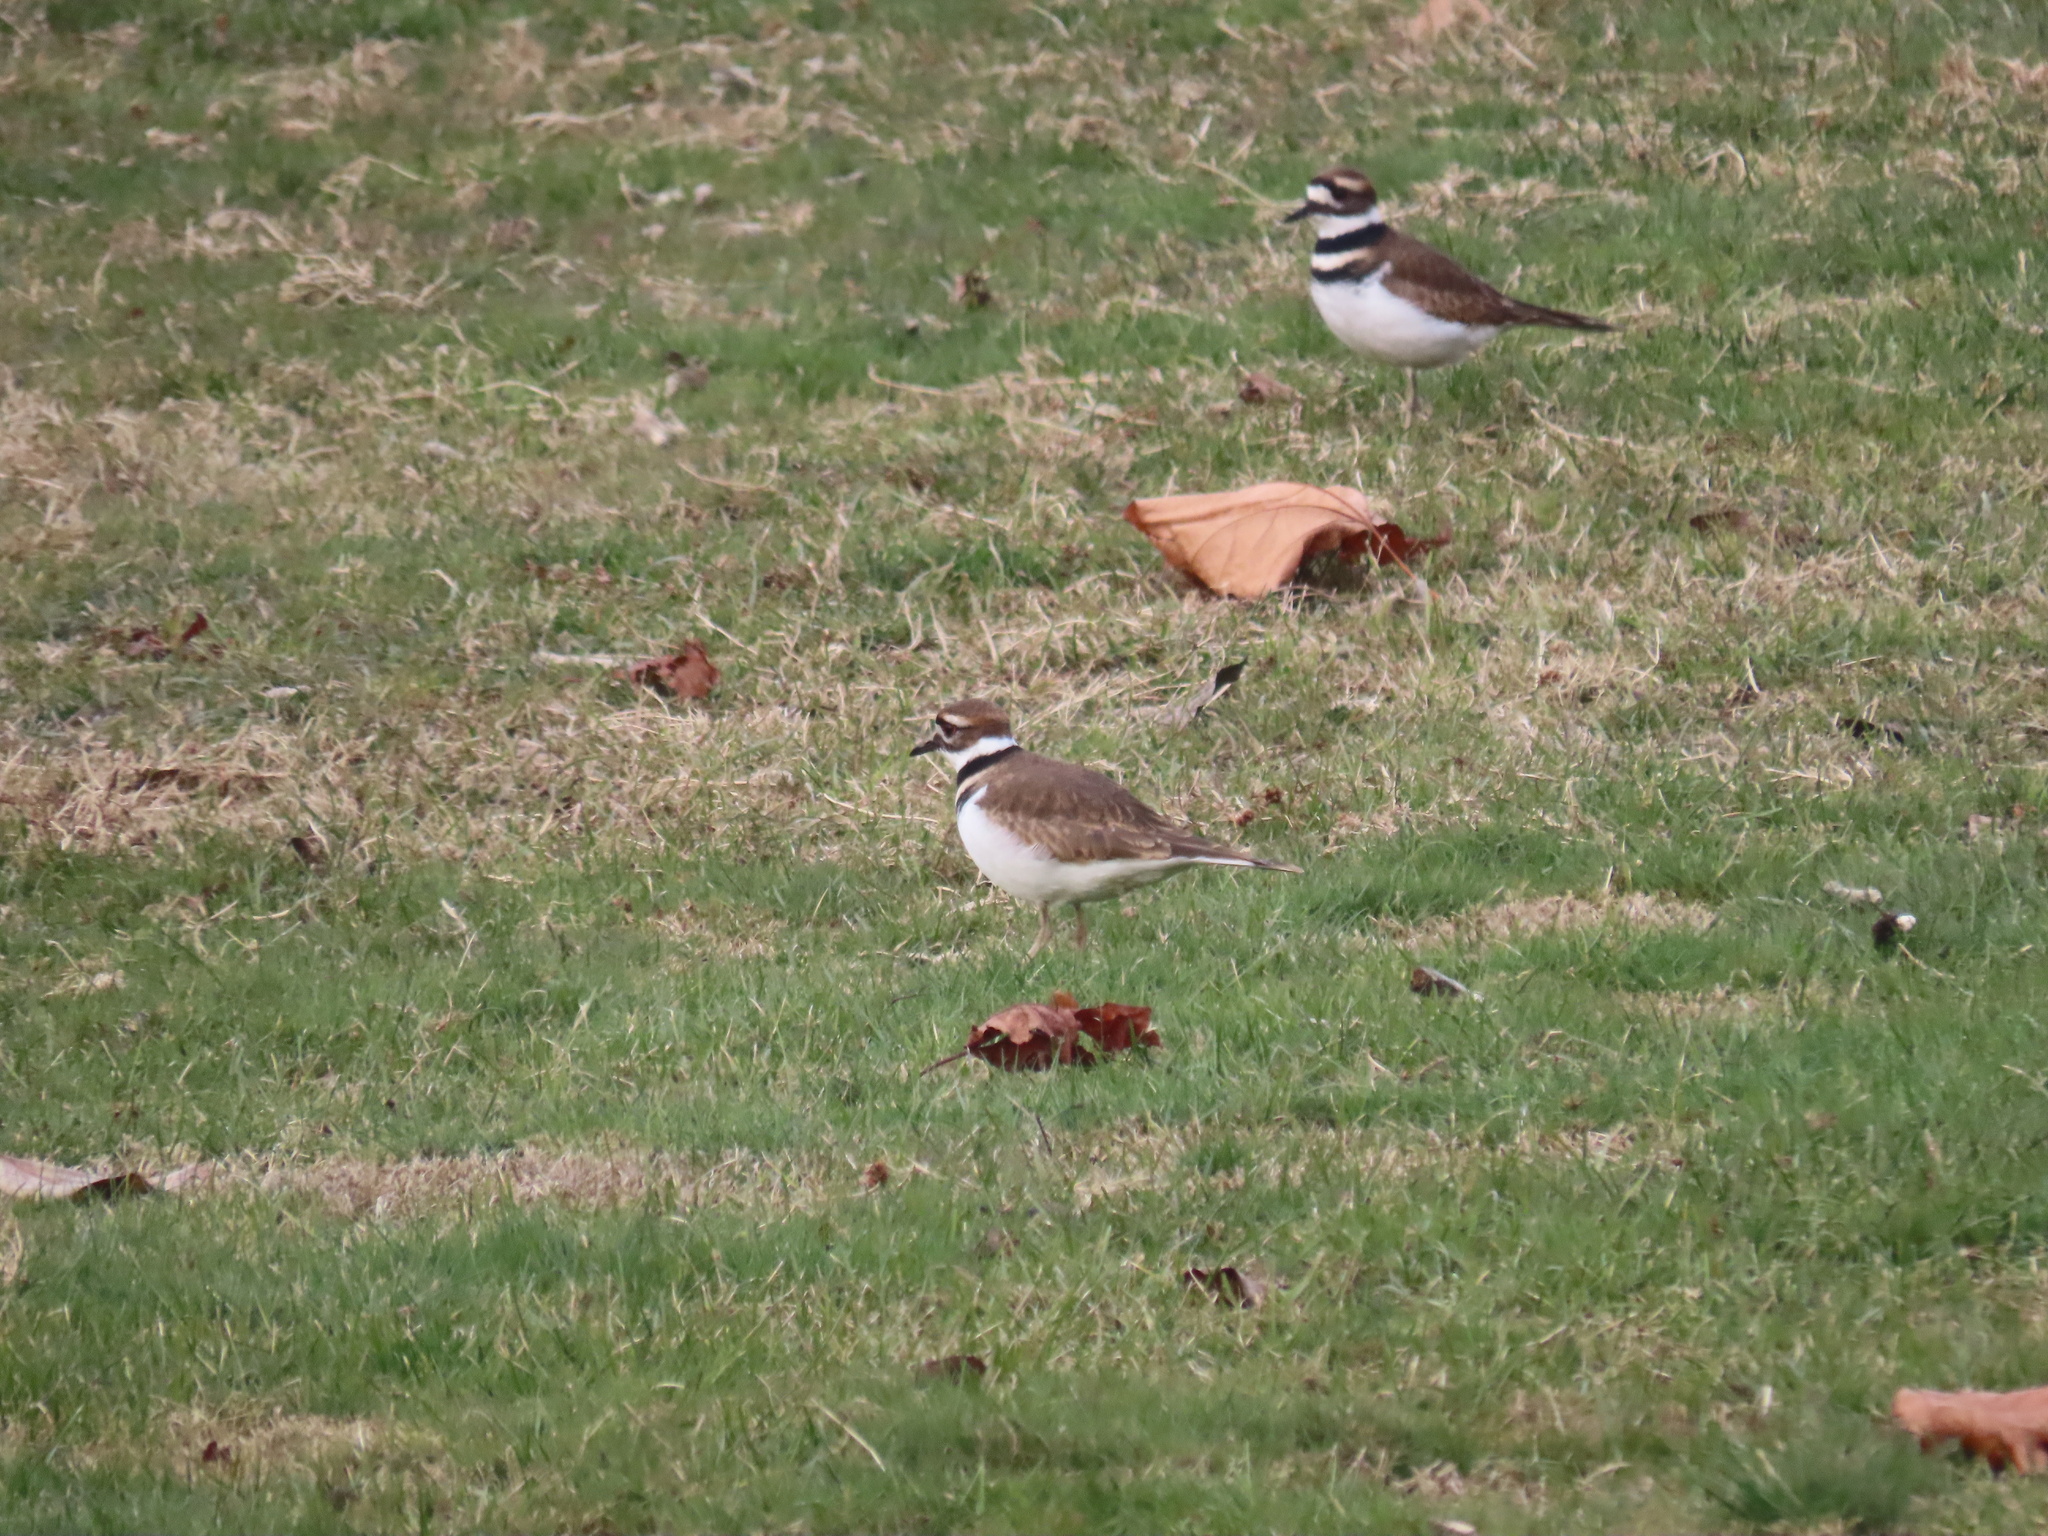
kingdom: Animalia
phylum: Chordata
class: Aves
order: Charadriiformes
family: Charadriidae
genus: Charadrius
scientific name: Charadrius vociferus
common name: Killdeer
